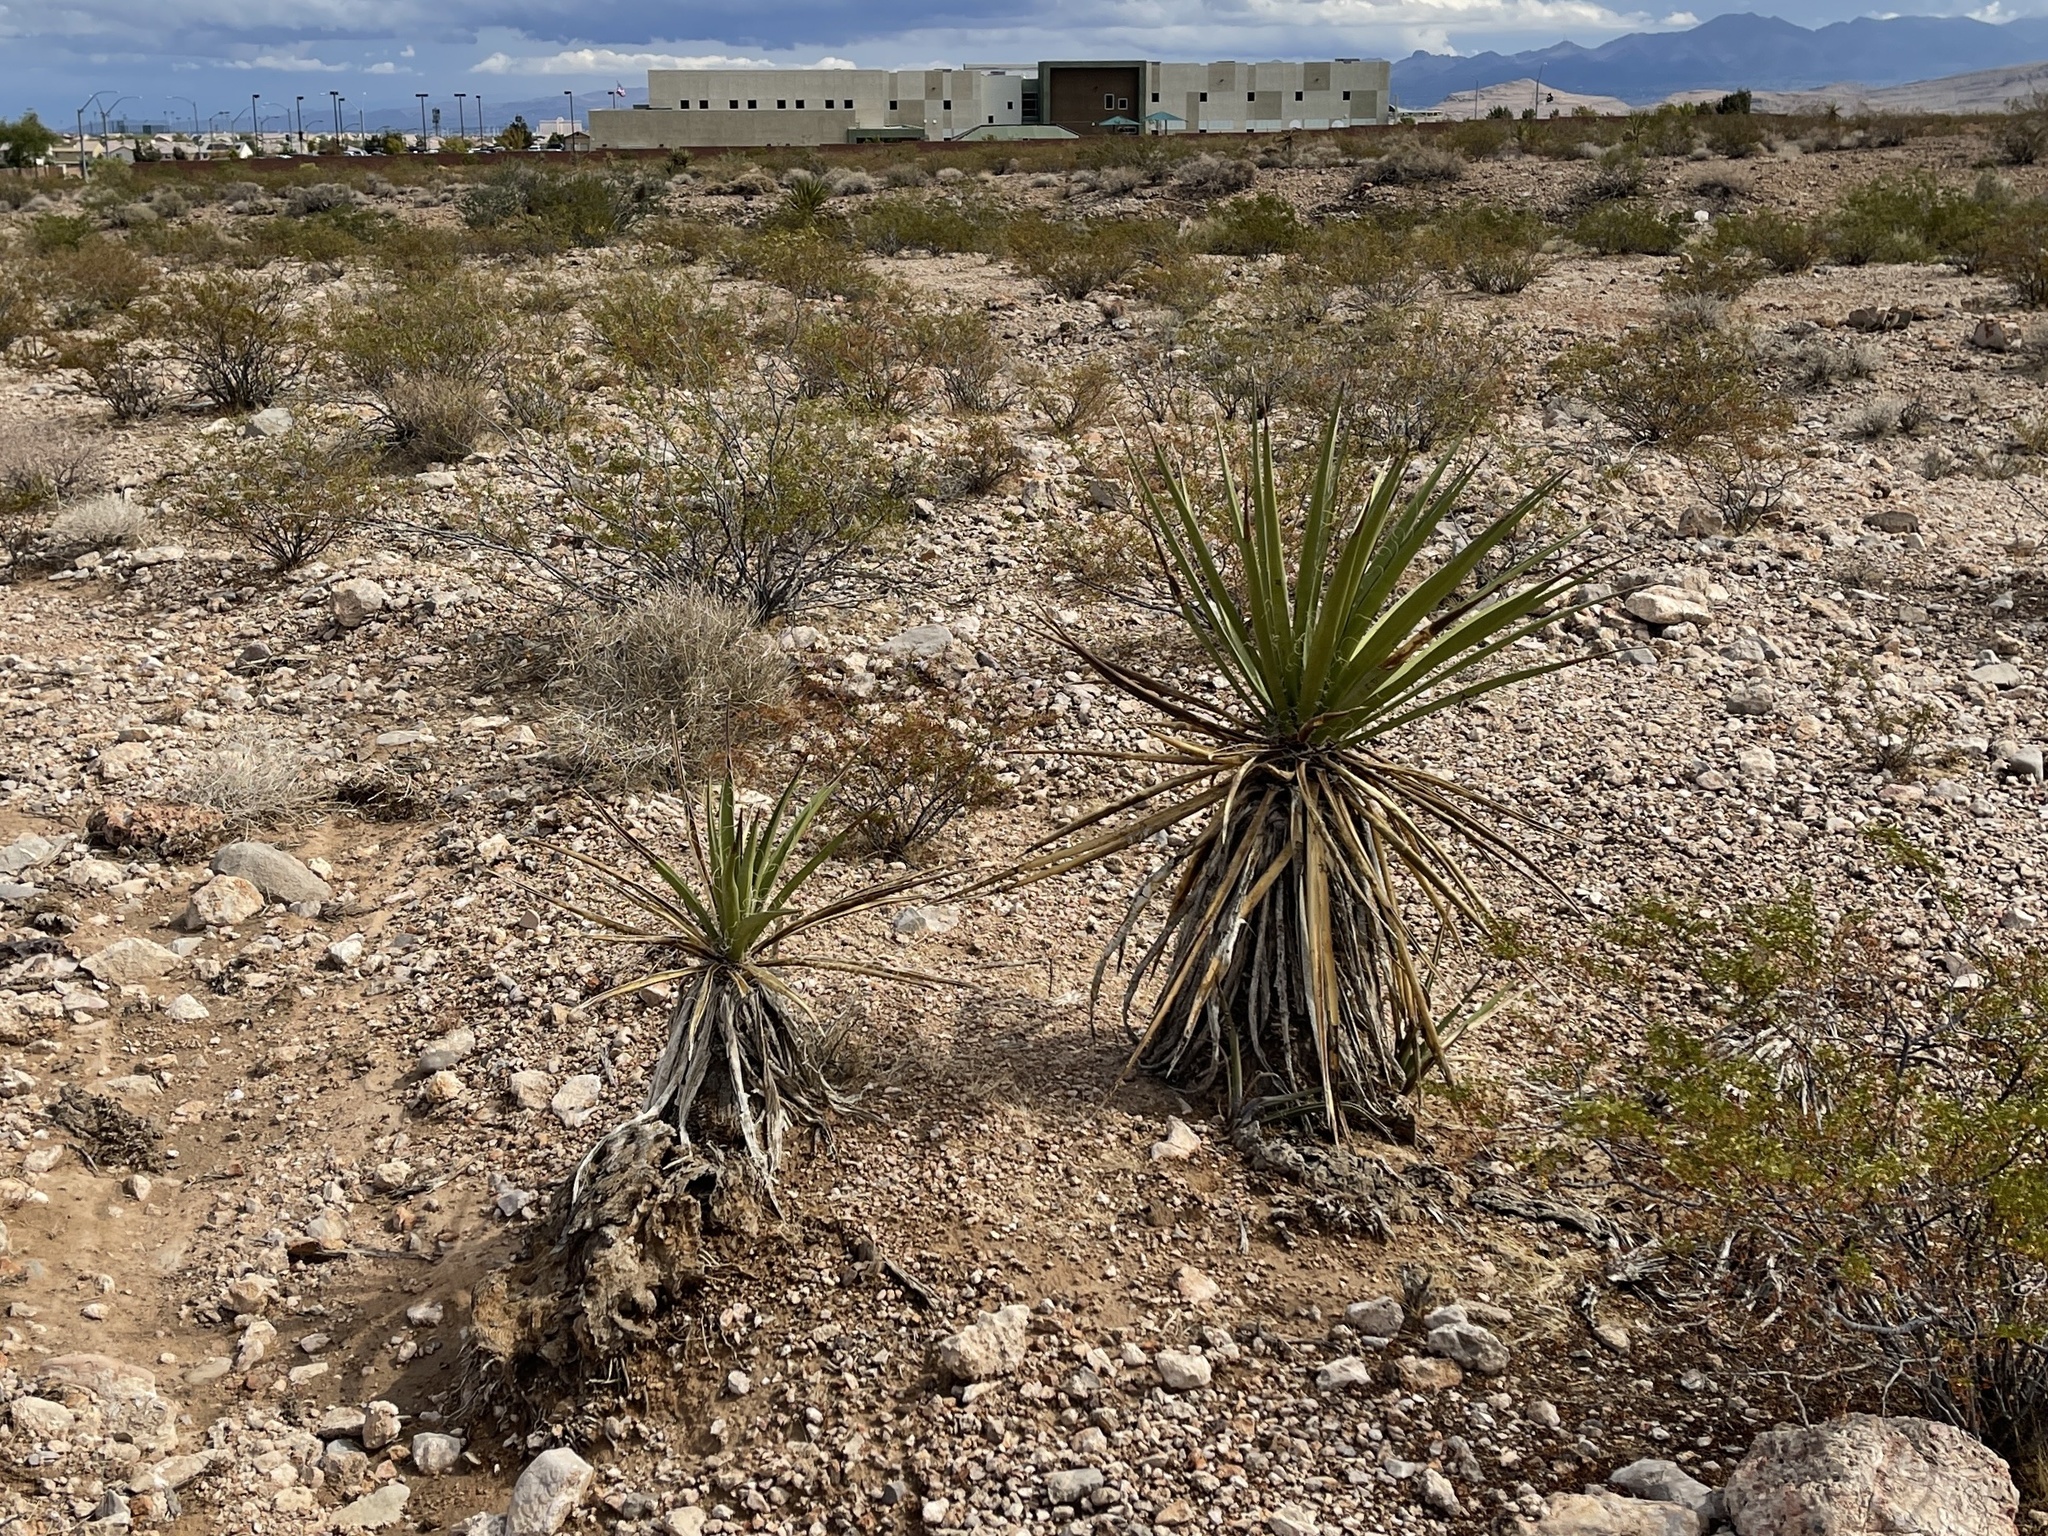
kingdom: Plantae
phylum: Tracheophyta
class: Liliopsida
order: Asparagales
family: Asparagaceae
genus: Yucca
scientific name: Yucca schidigera
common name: Mojave yucca
